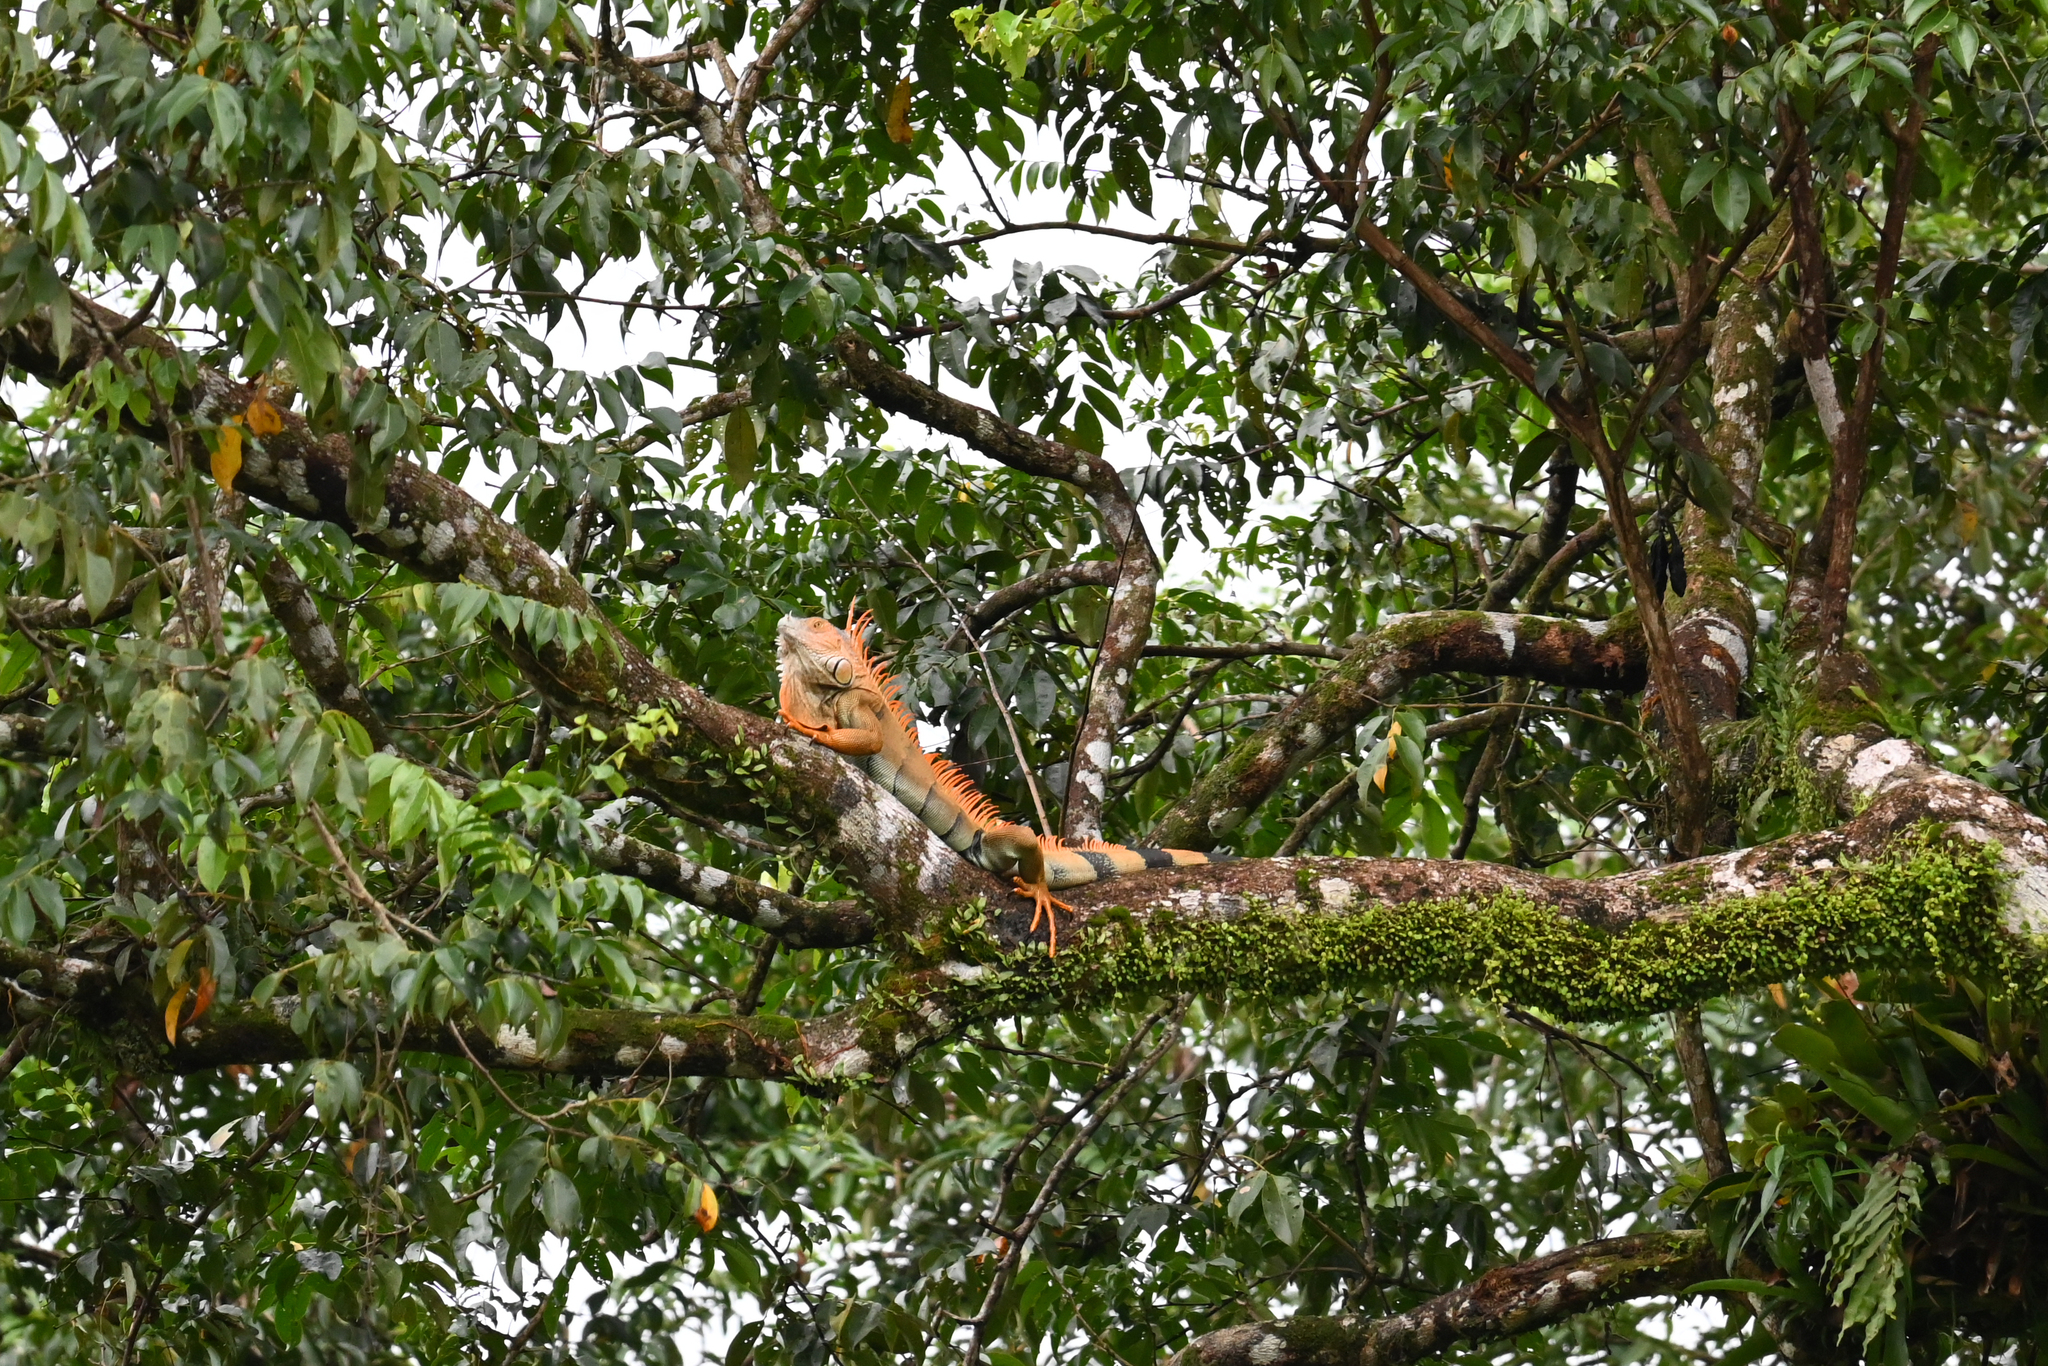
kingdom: Animalia
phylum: Chordata
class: Squamata
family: Iguanidae
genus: Iguana
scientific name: Iguana iguana
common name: Green iguana
